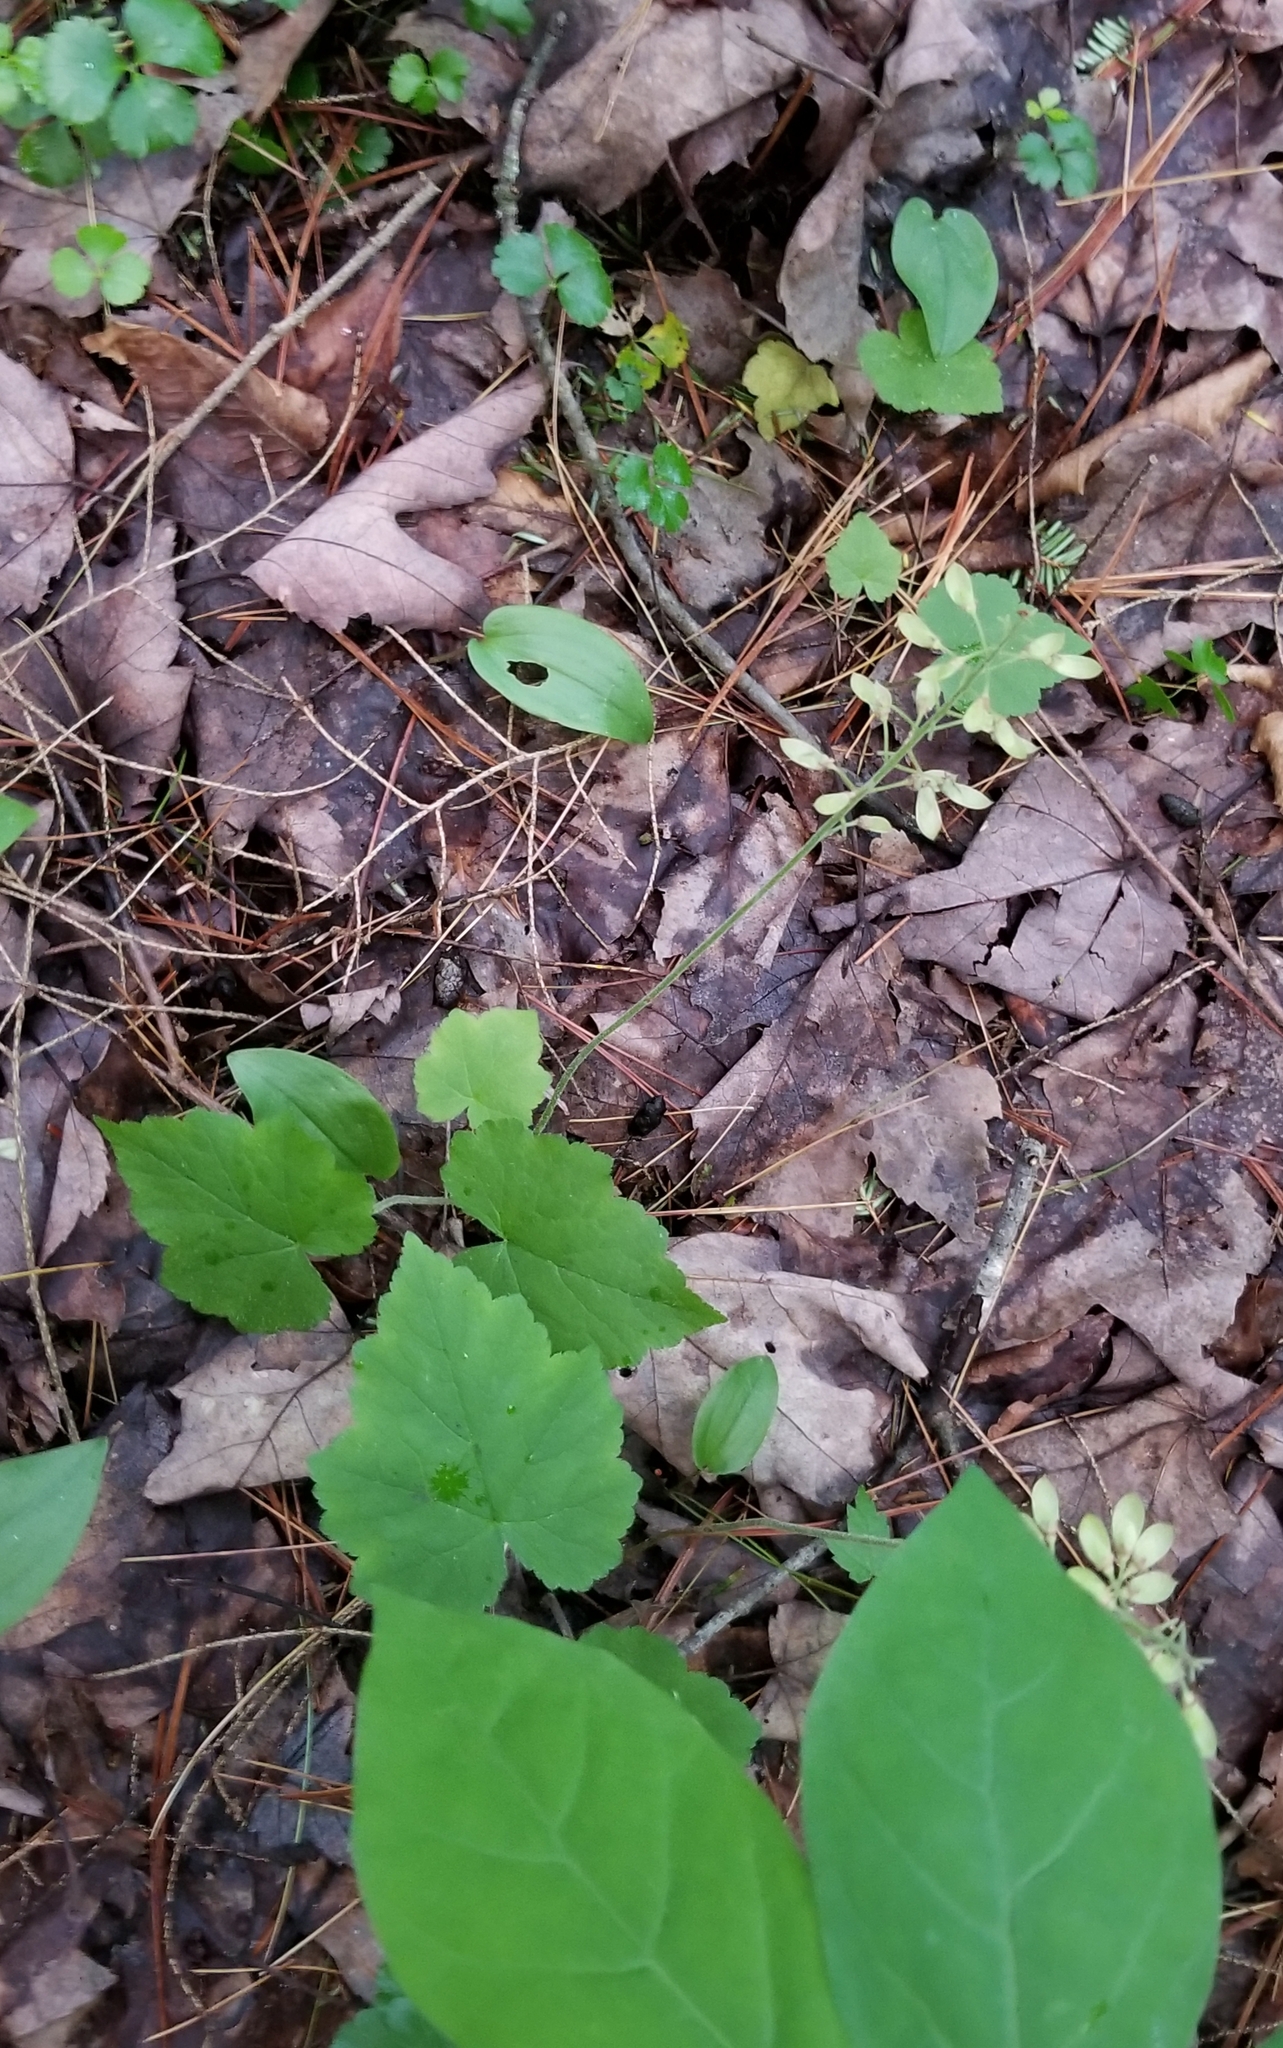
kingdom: Plantae
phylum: Tracheophyta
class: Magnoliopsida
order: Saxifragales
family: Saxifragaceae
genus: Tiarella
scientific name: Tiarella stolonifera
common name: Stoloniferous foamflower
